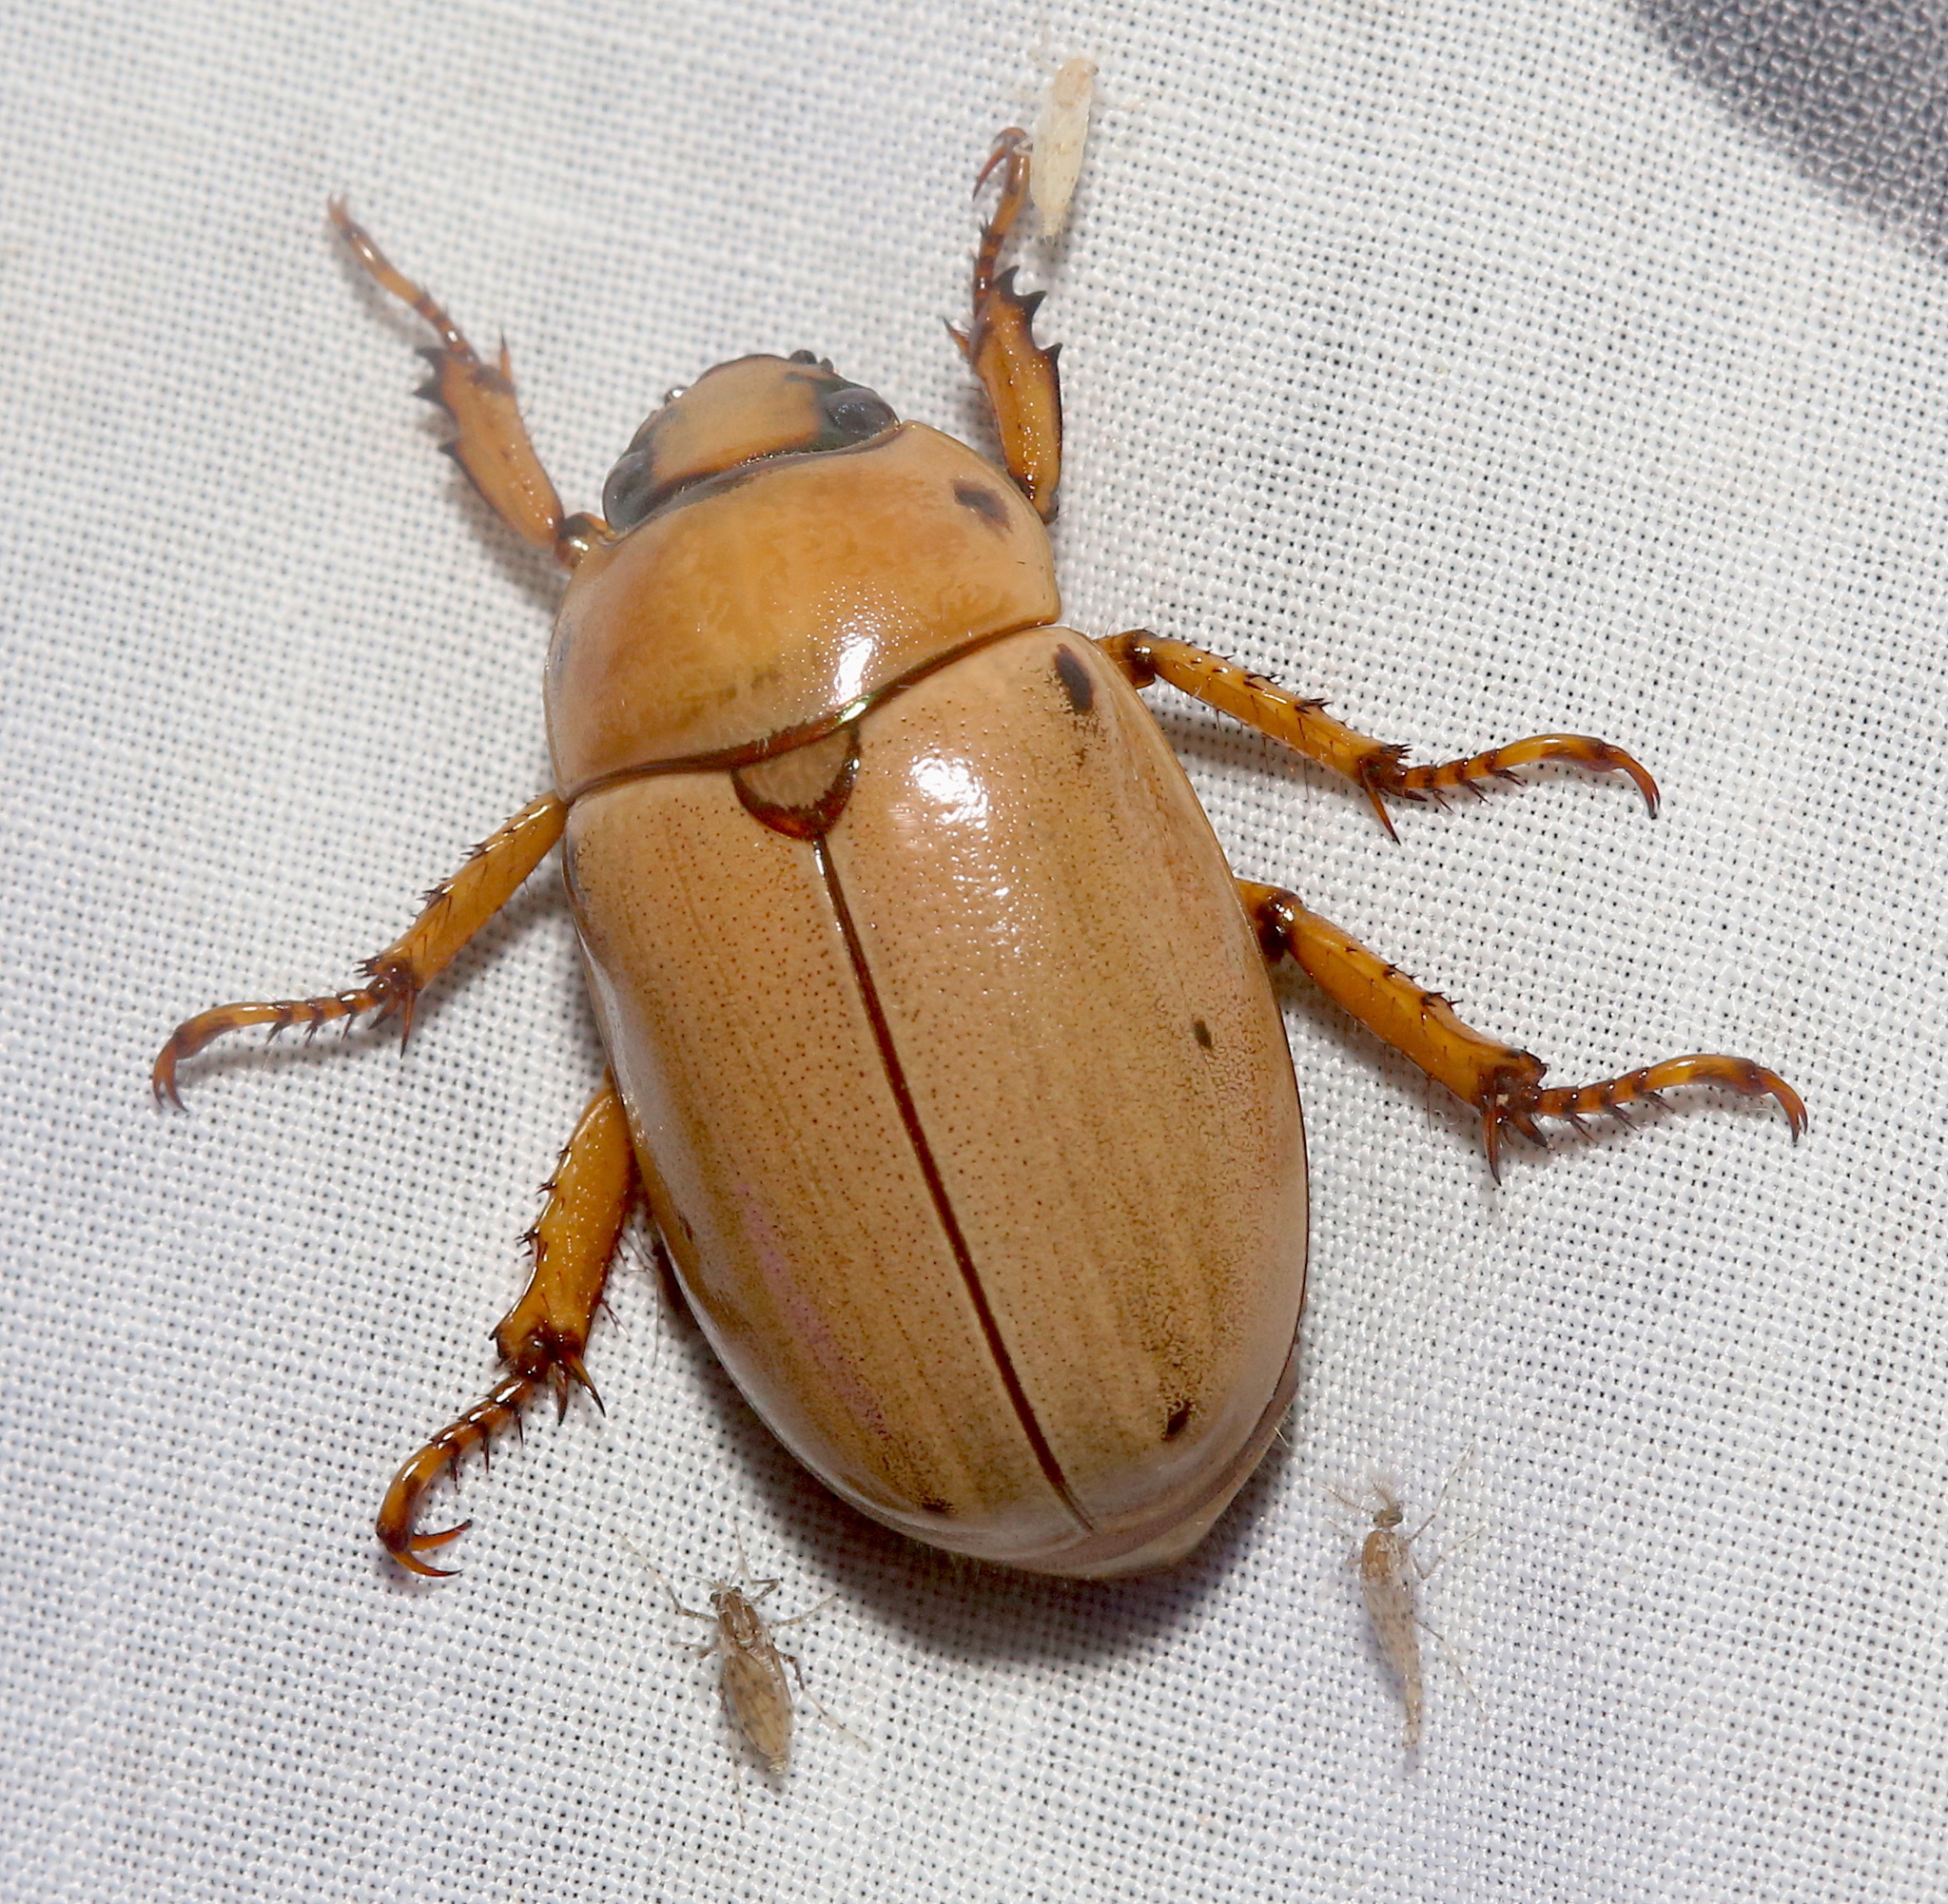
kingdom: Animalia
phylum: Arthropoda
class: Insecta
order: Coleoptera
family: Scarabaeidae
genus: Pelidnota
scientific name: Pelidnota punctata
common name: Grapevine beetle
